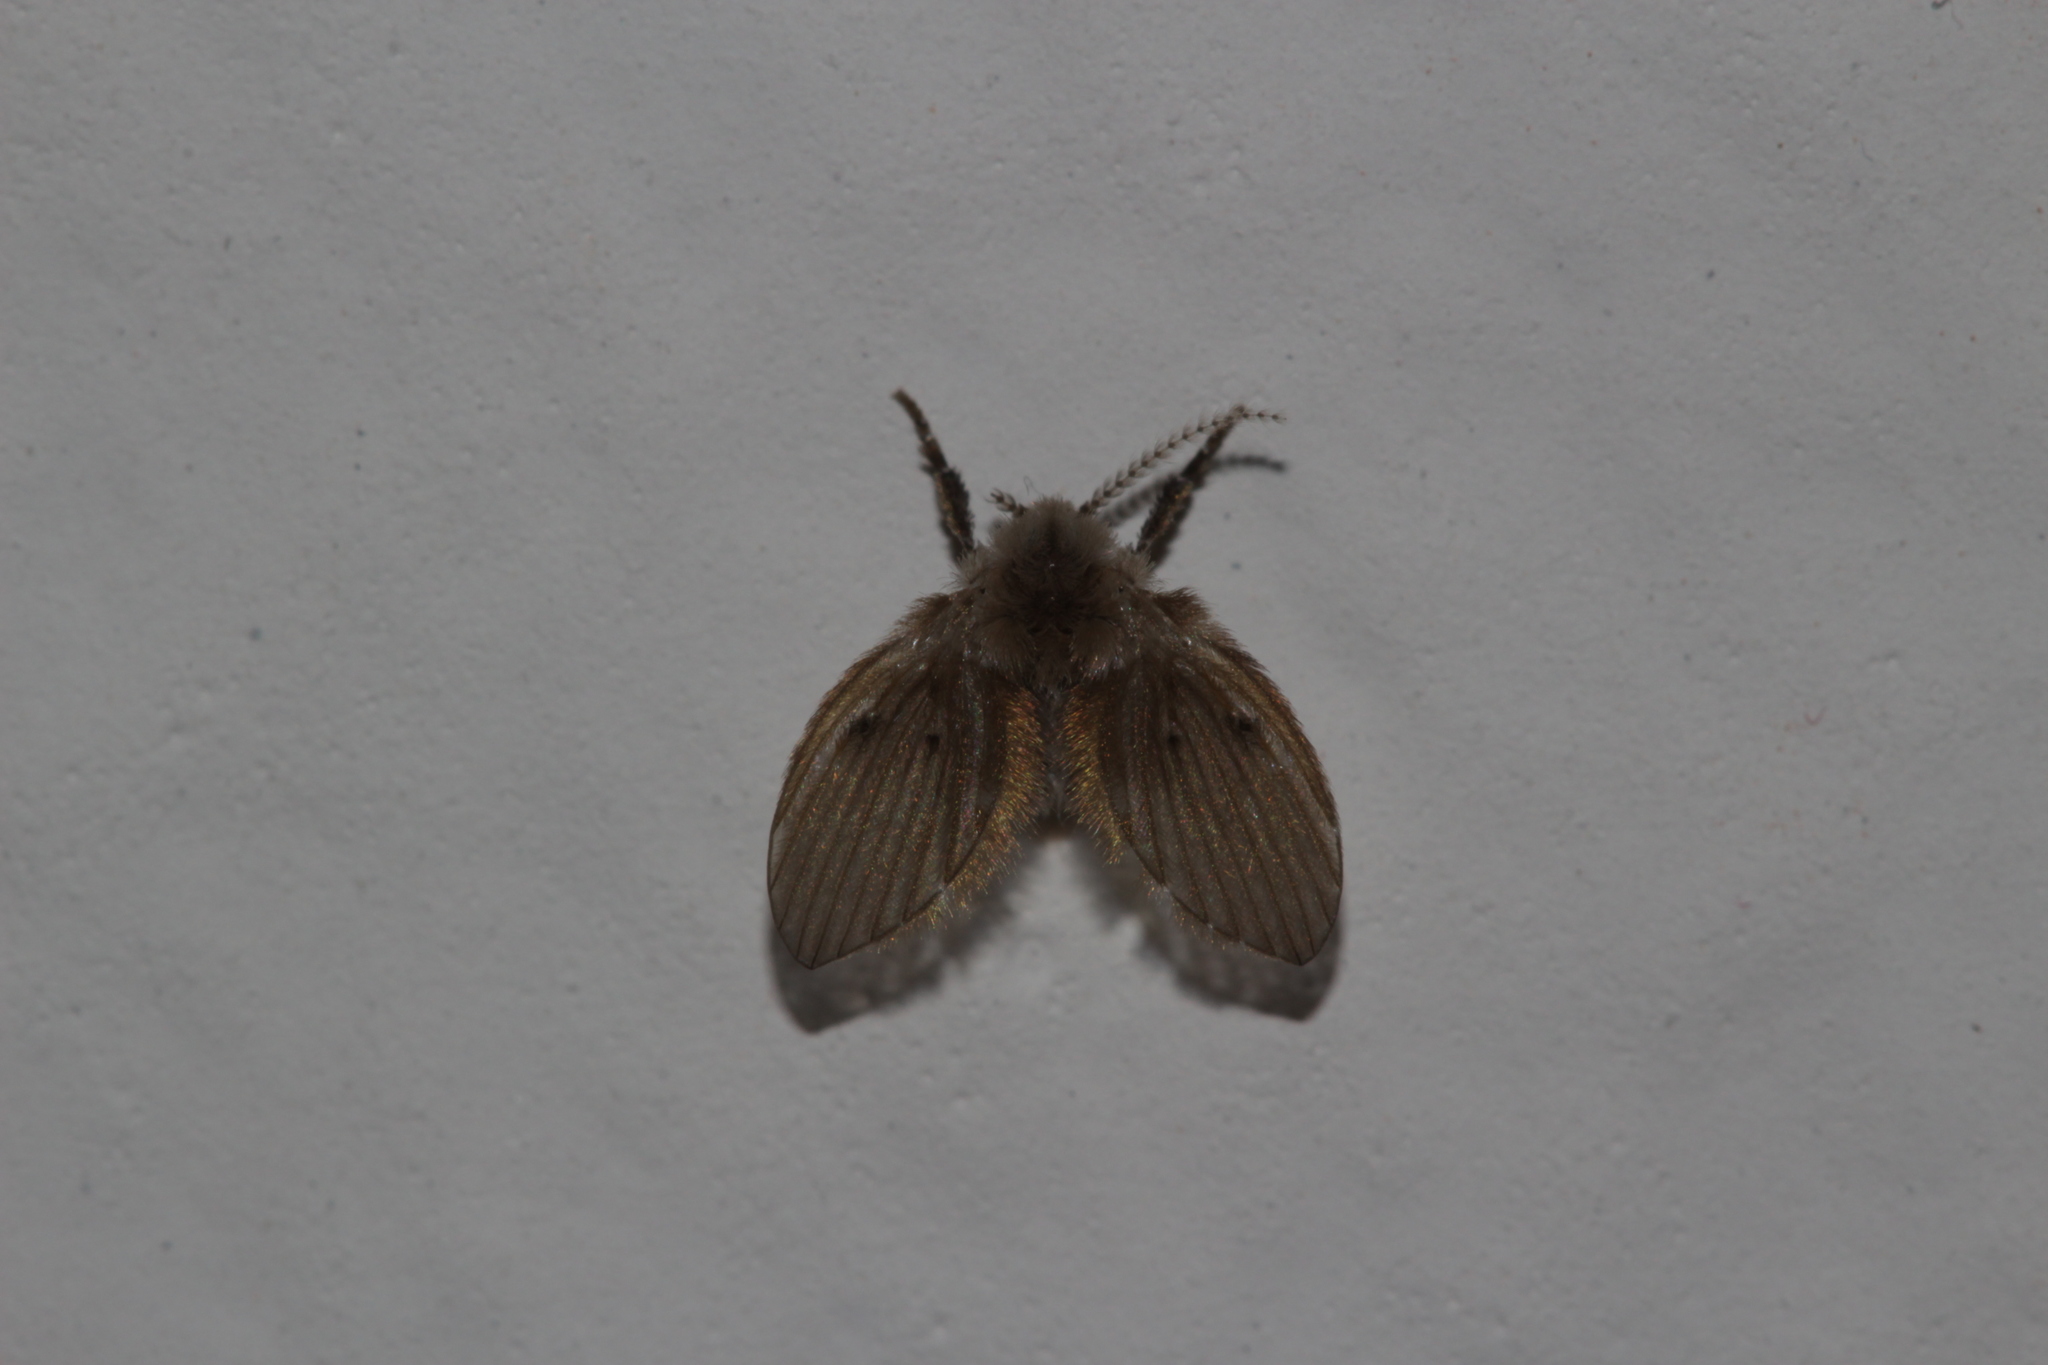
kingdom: Animalia
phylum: Arthropoda
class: Insecta
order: Diptera
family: Psychodidae
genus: Clogmia
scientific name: Clogmia albipunctatus
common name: White-spotted moth fly
